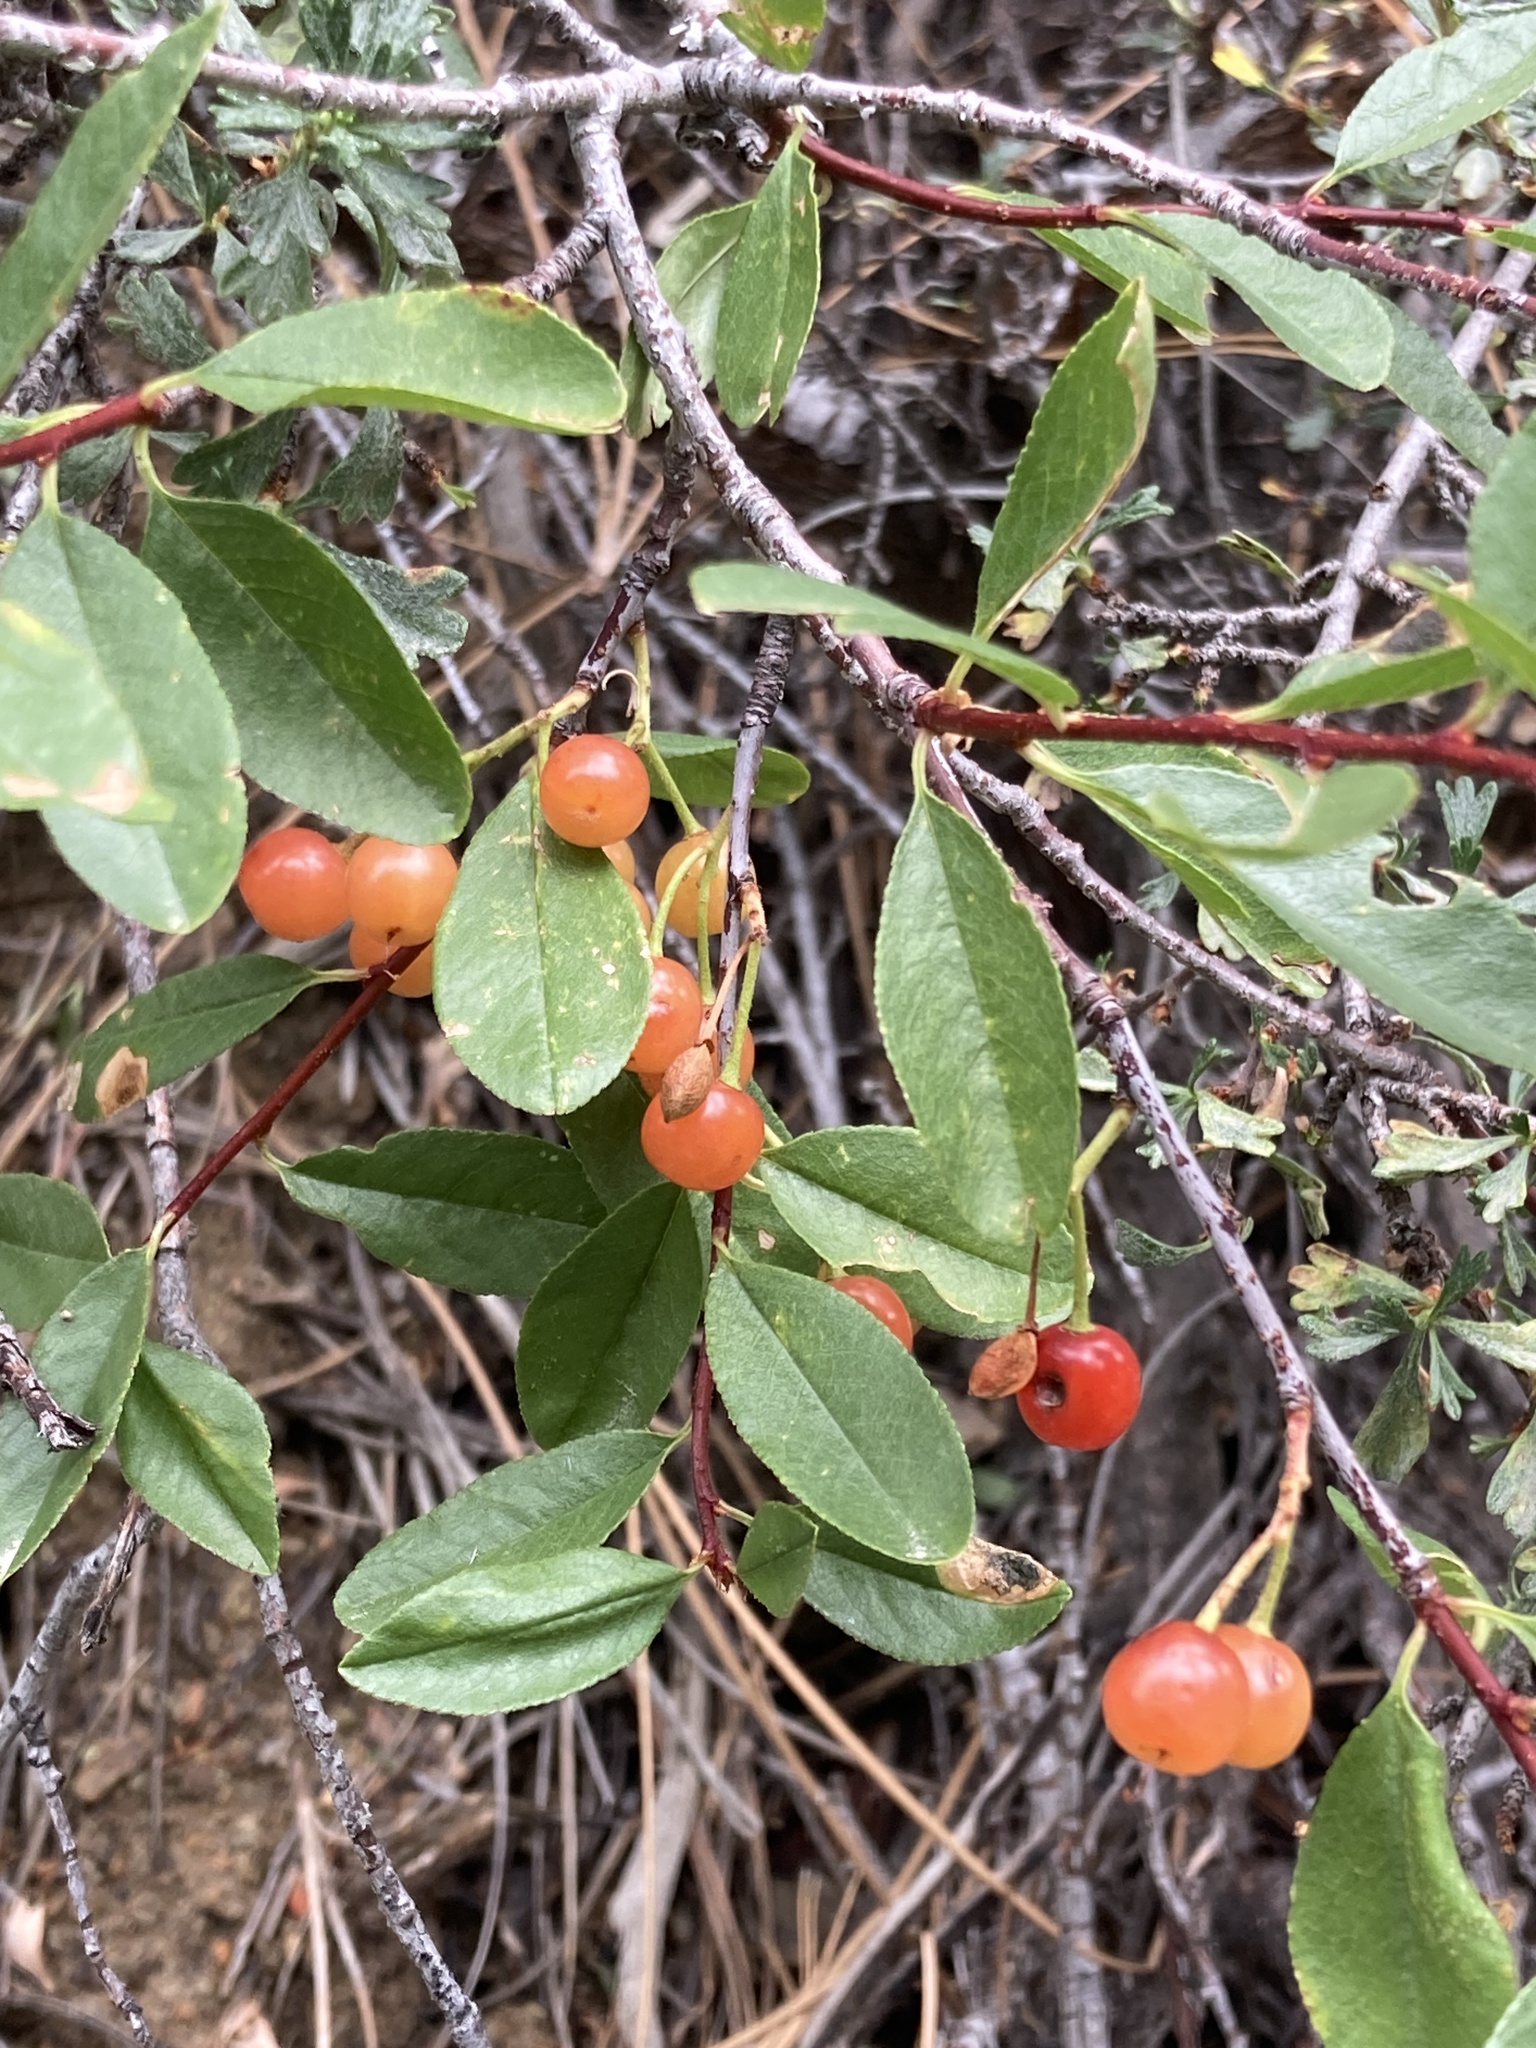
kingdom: Plantae
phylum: Tracheophyta
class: Magnoliopsida
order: Rosales
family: Rosaceae
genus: Prunus
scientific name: Prunus emarginata
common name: Bitter cherry
